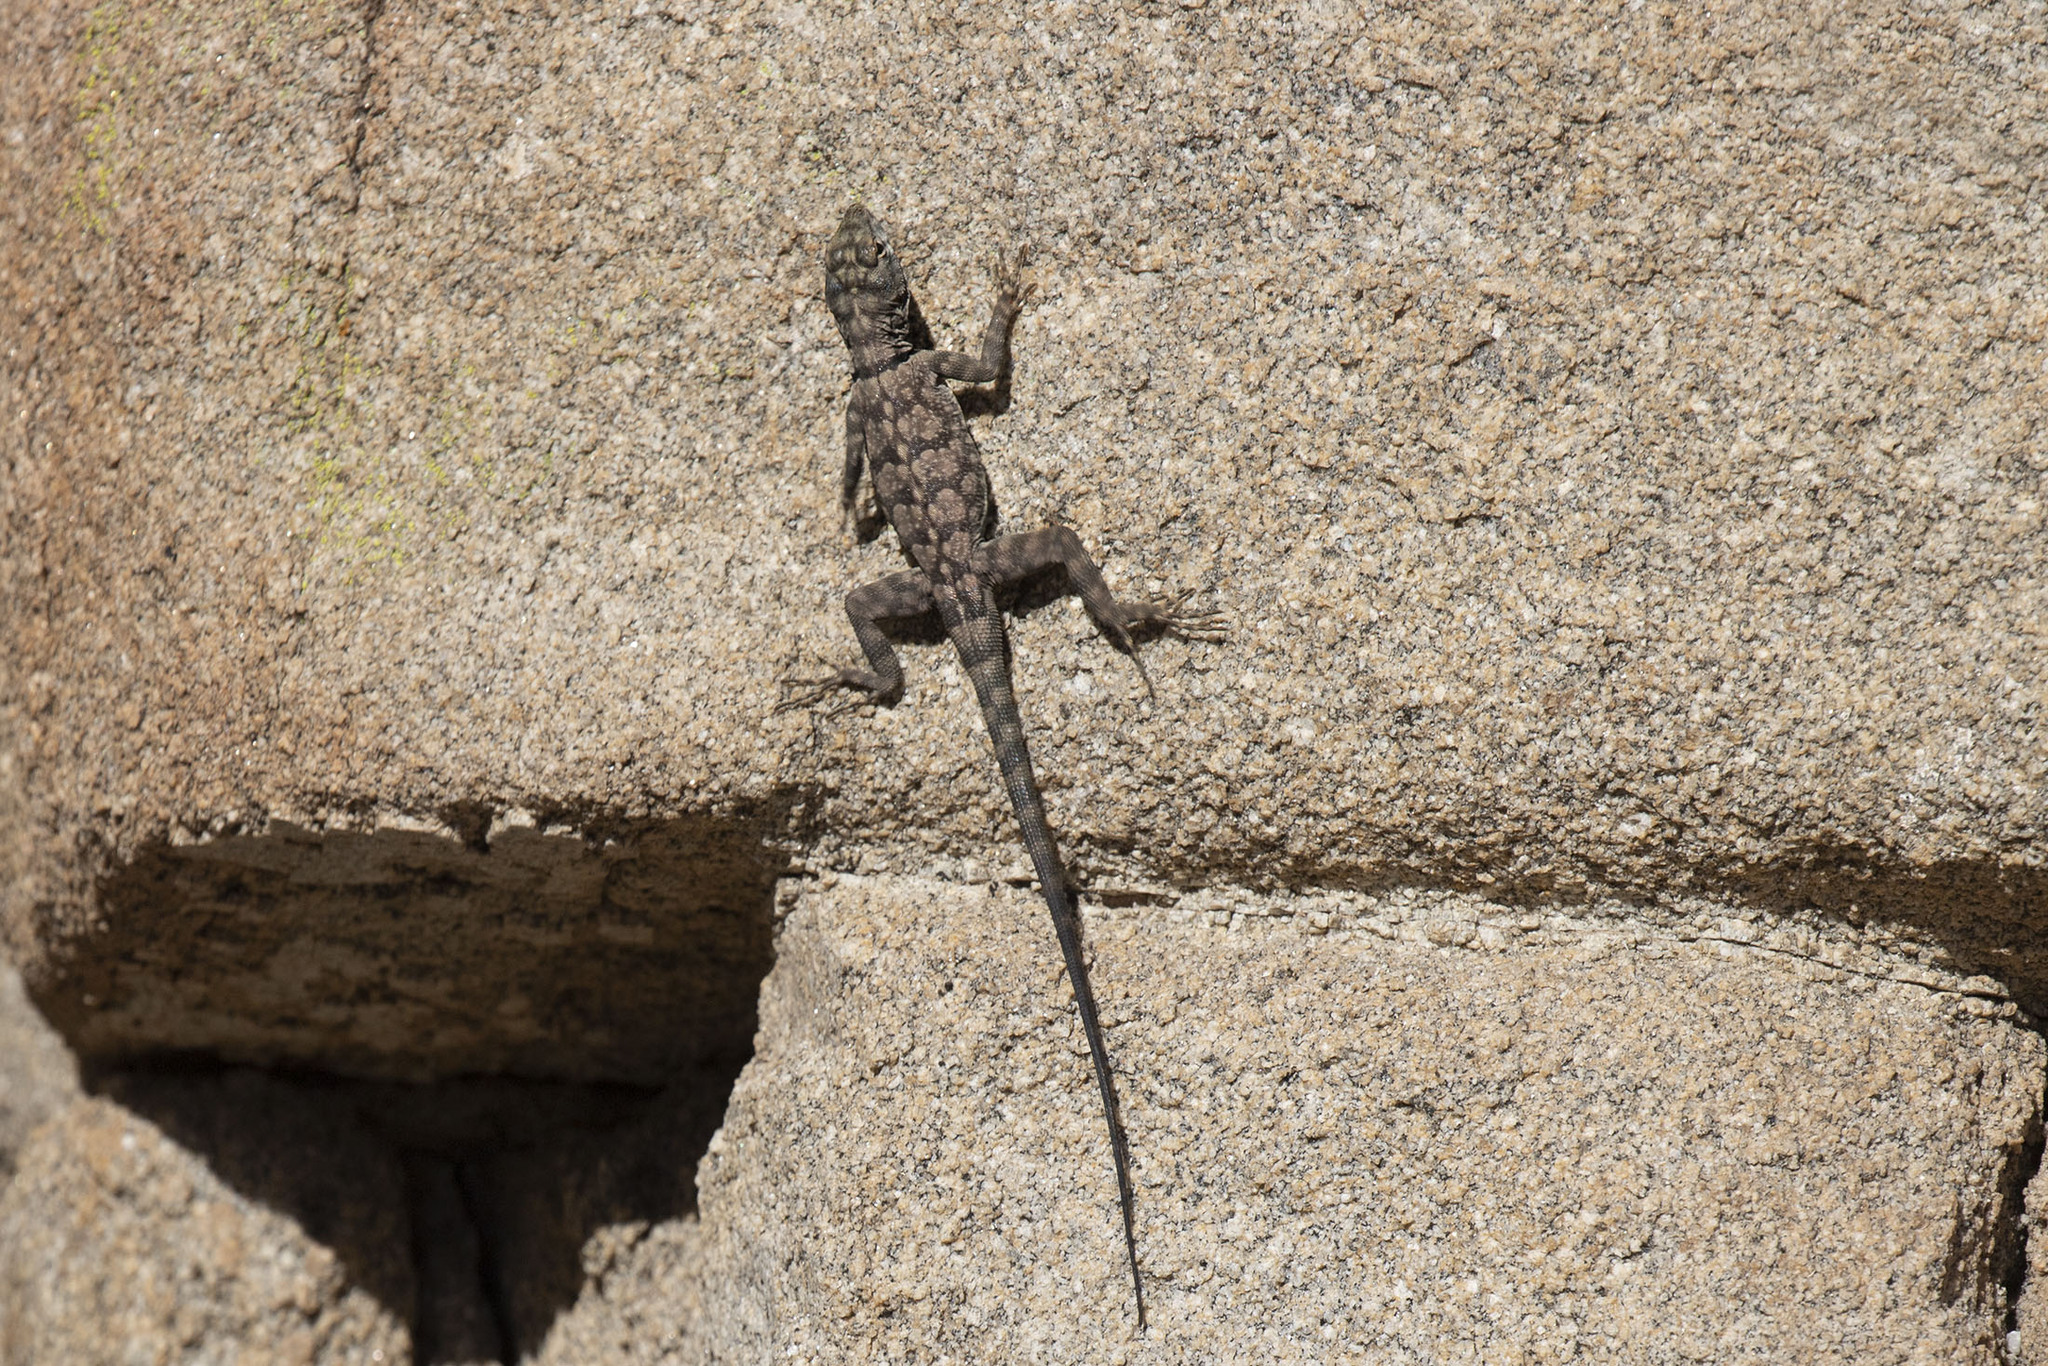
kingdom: Animalia
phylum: Chordata
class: Squamata
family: Phrynosomatidae
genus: Petrosaurus
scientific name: Petrosaurus mearnsi
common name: Banded rock lizard
